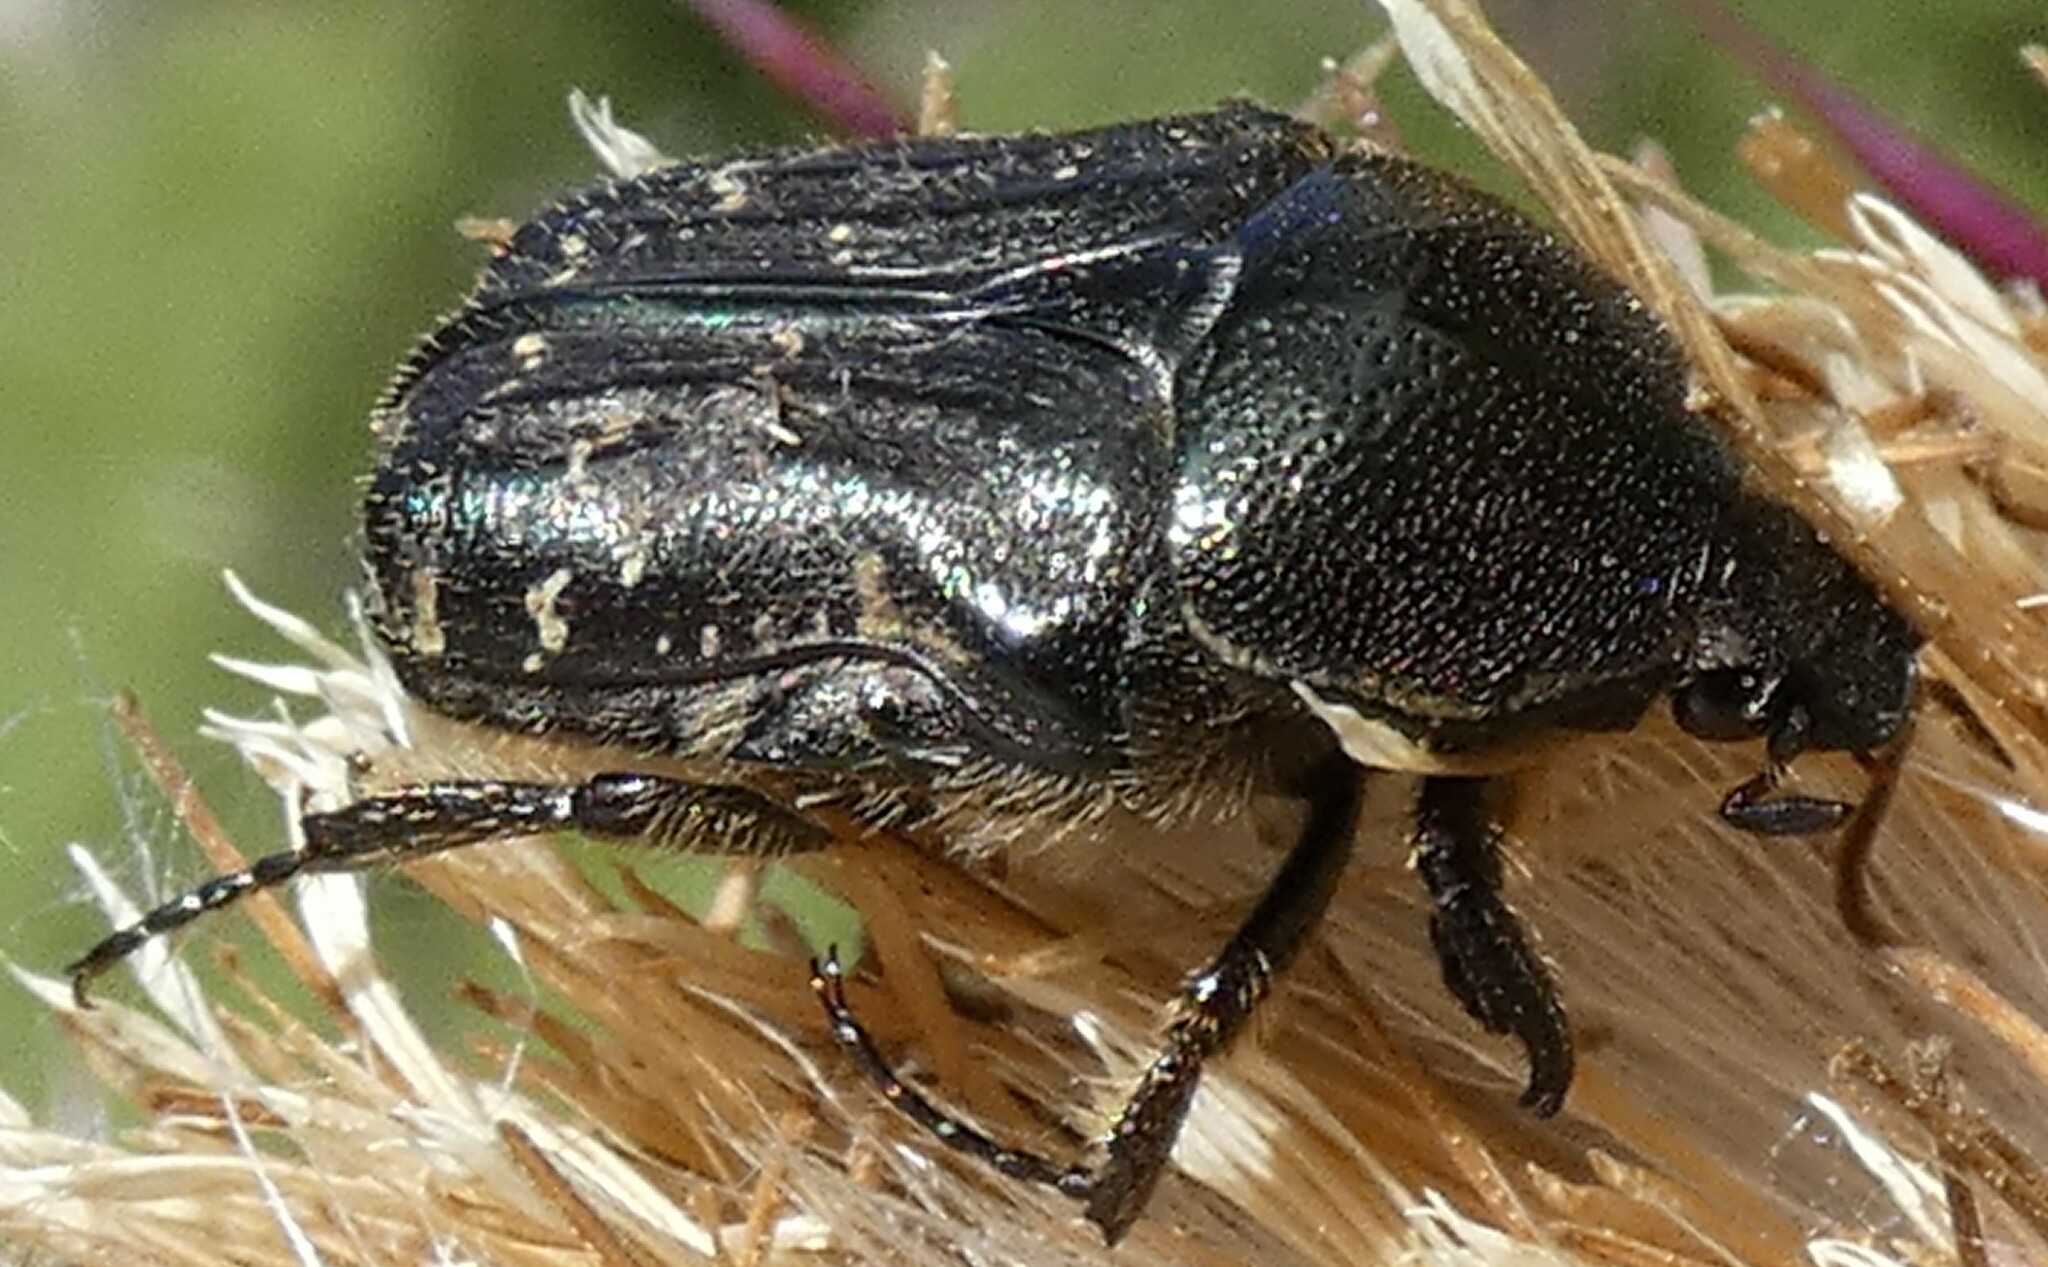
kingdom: Animalia
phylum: Arthropoda
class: Insecta
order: Coleoptera
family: Scarabaeidae
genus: Euphoria
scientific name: Euphoria sepulcralis
